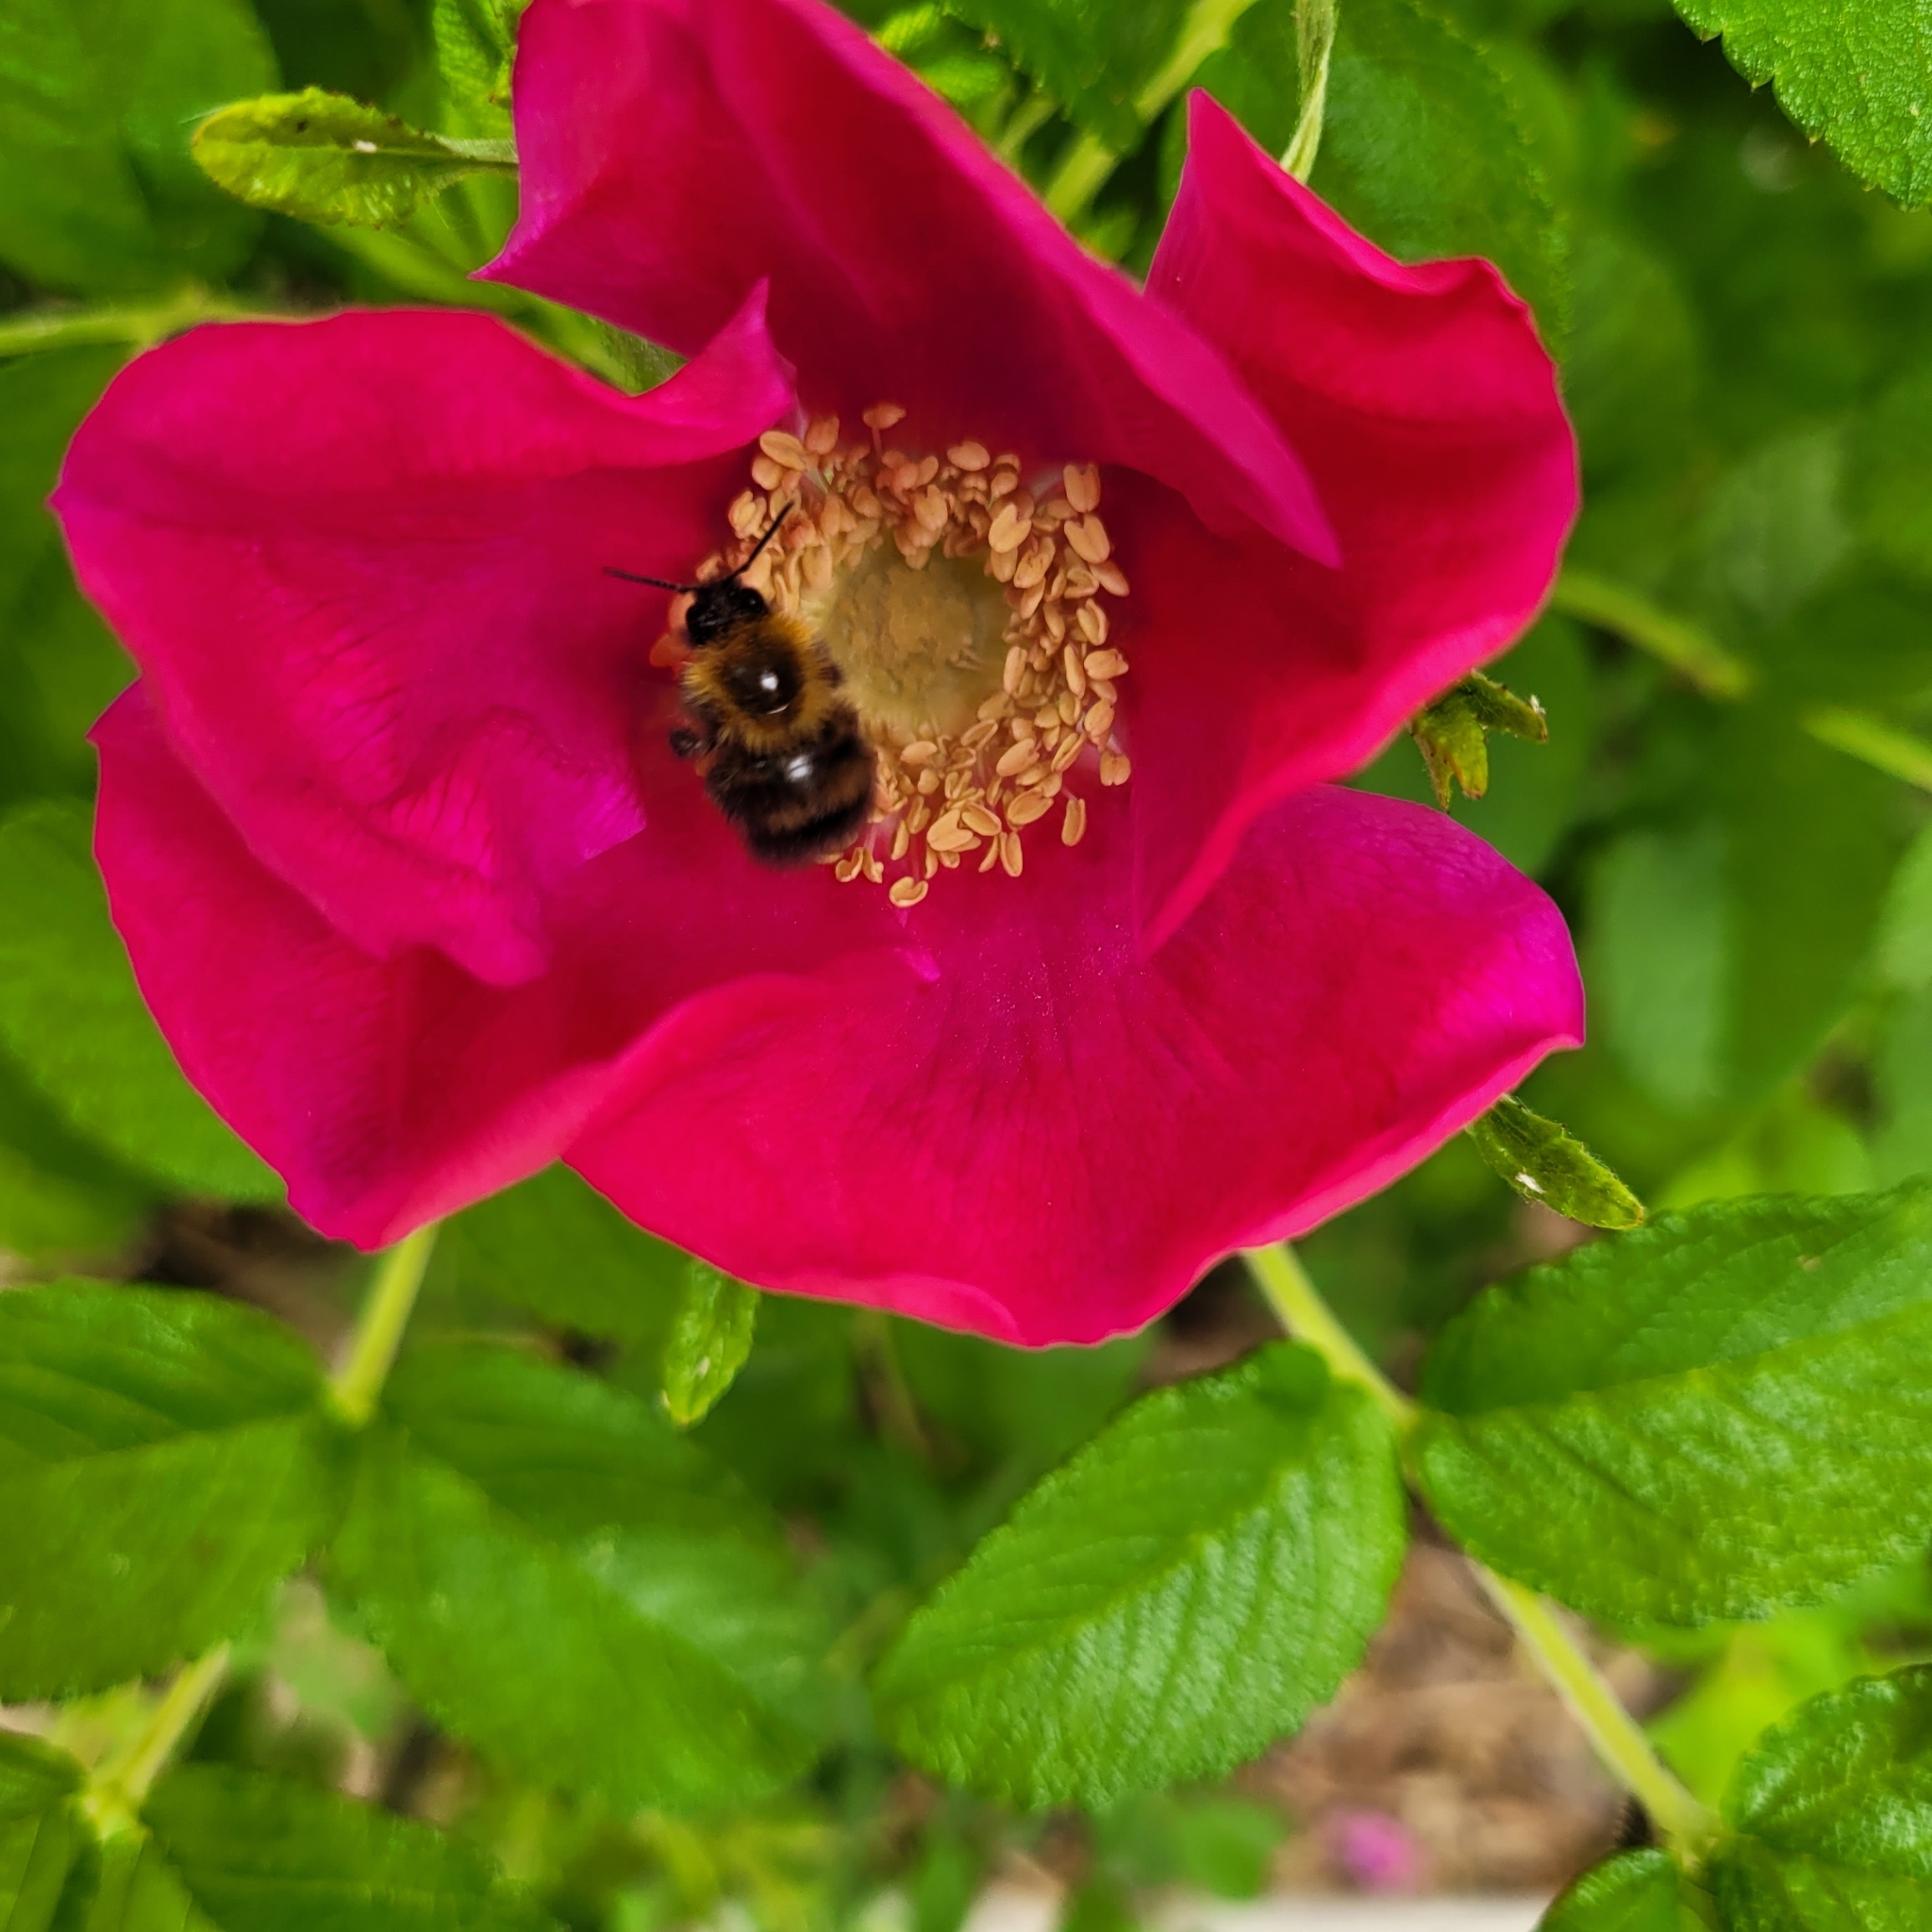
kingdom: Animalia
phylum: Arthropoda
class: Insecta
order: Hymenoptera
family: Apidae
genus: Bombus
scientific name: Bombus perplexus
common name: Confusing bumble bee
